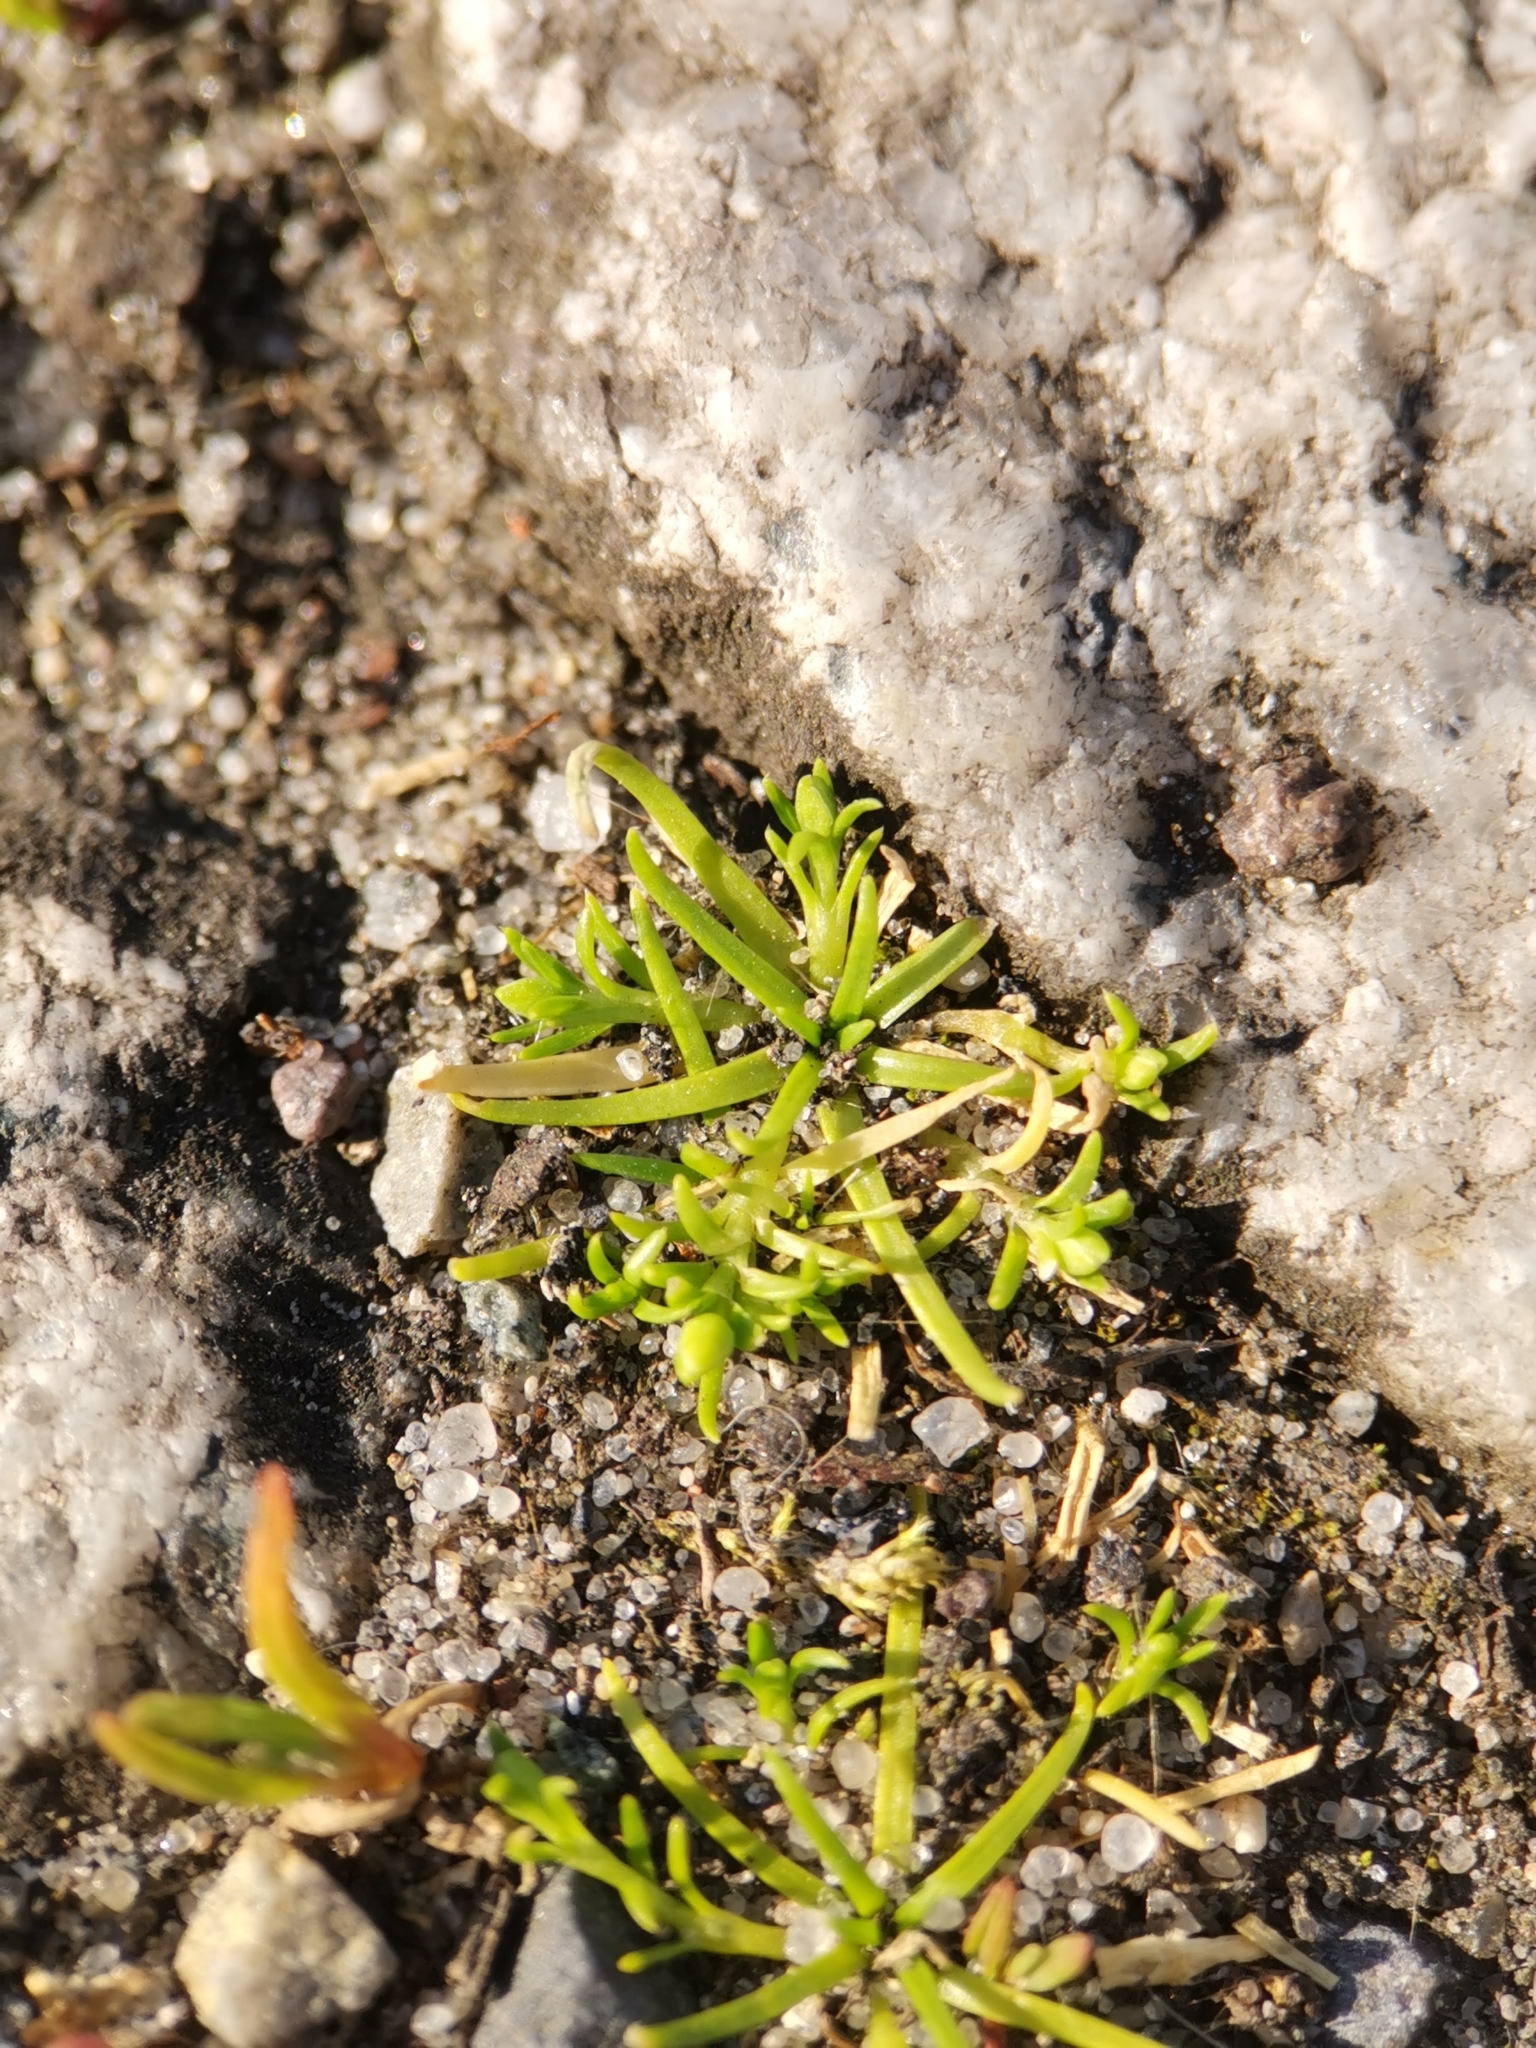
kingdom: Plantae
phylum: Tracheophyta
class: Magnoliopsida
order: Caryophyllales
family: Caryophyllaceae
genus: Sagina
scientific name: Sagina procumbens
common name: Procumbent pearlwort
